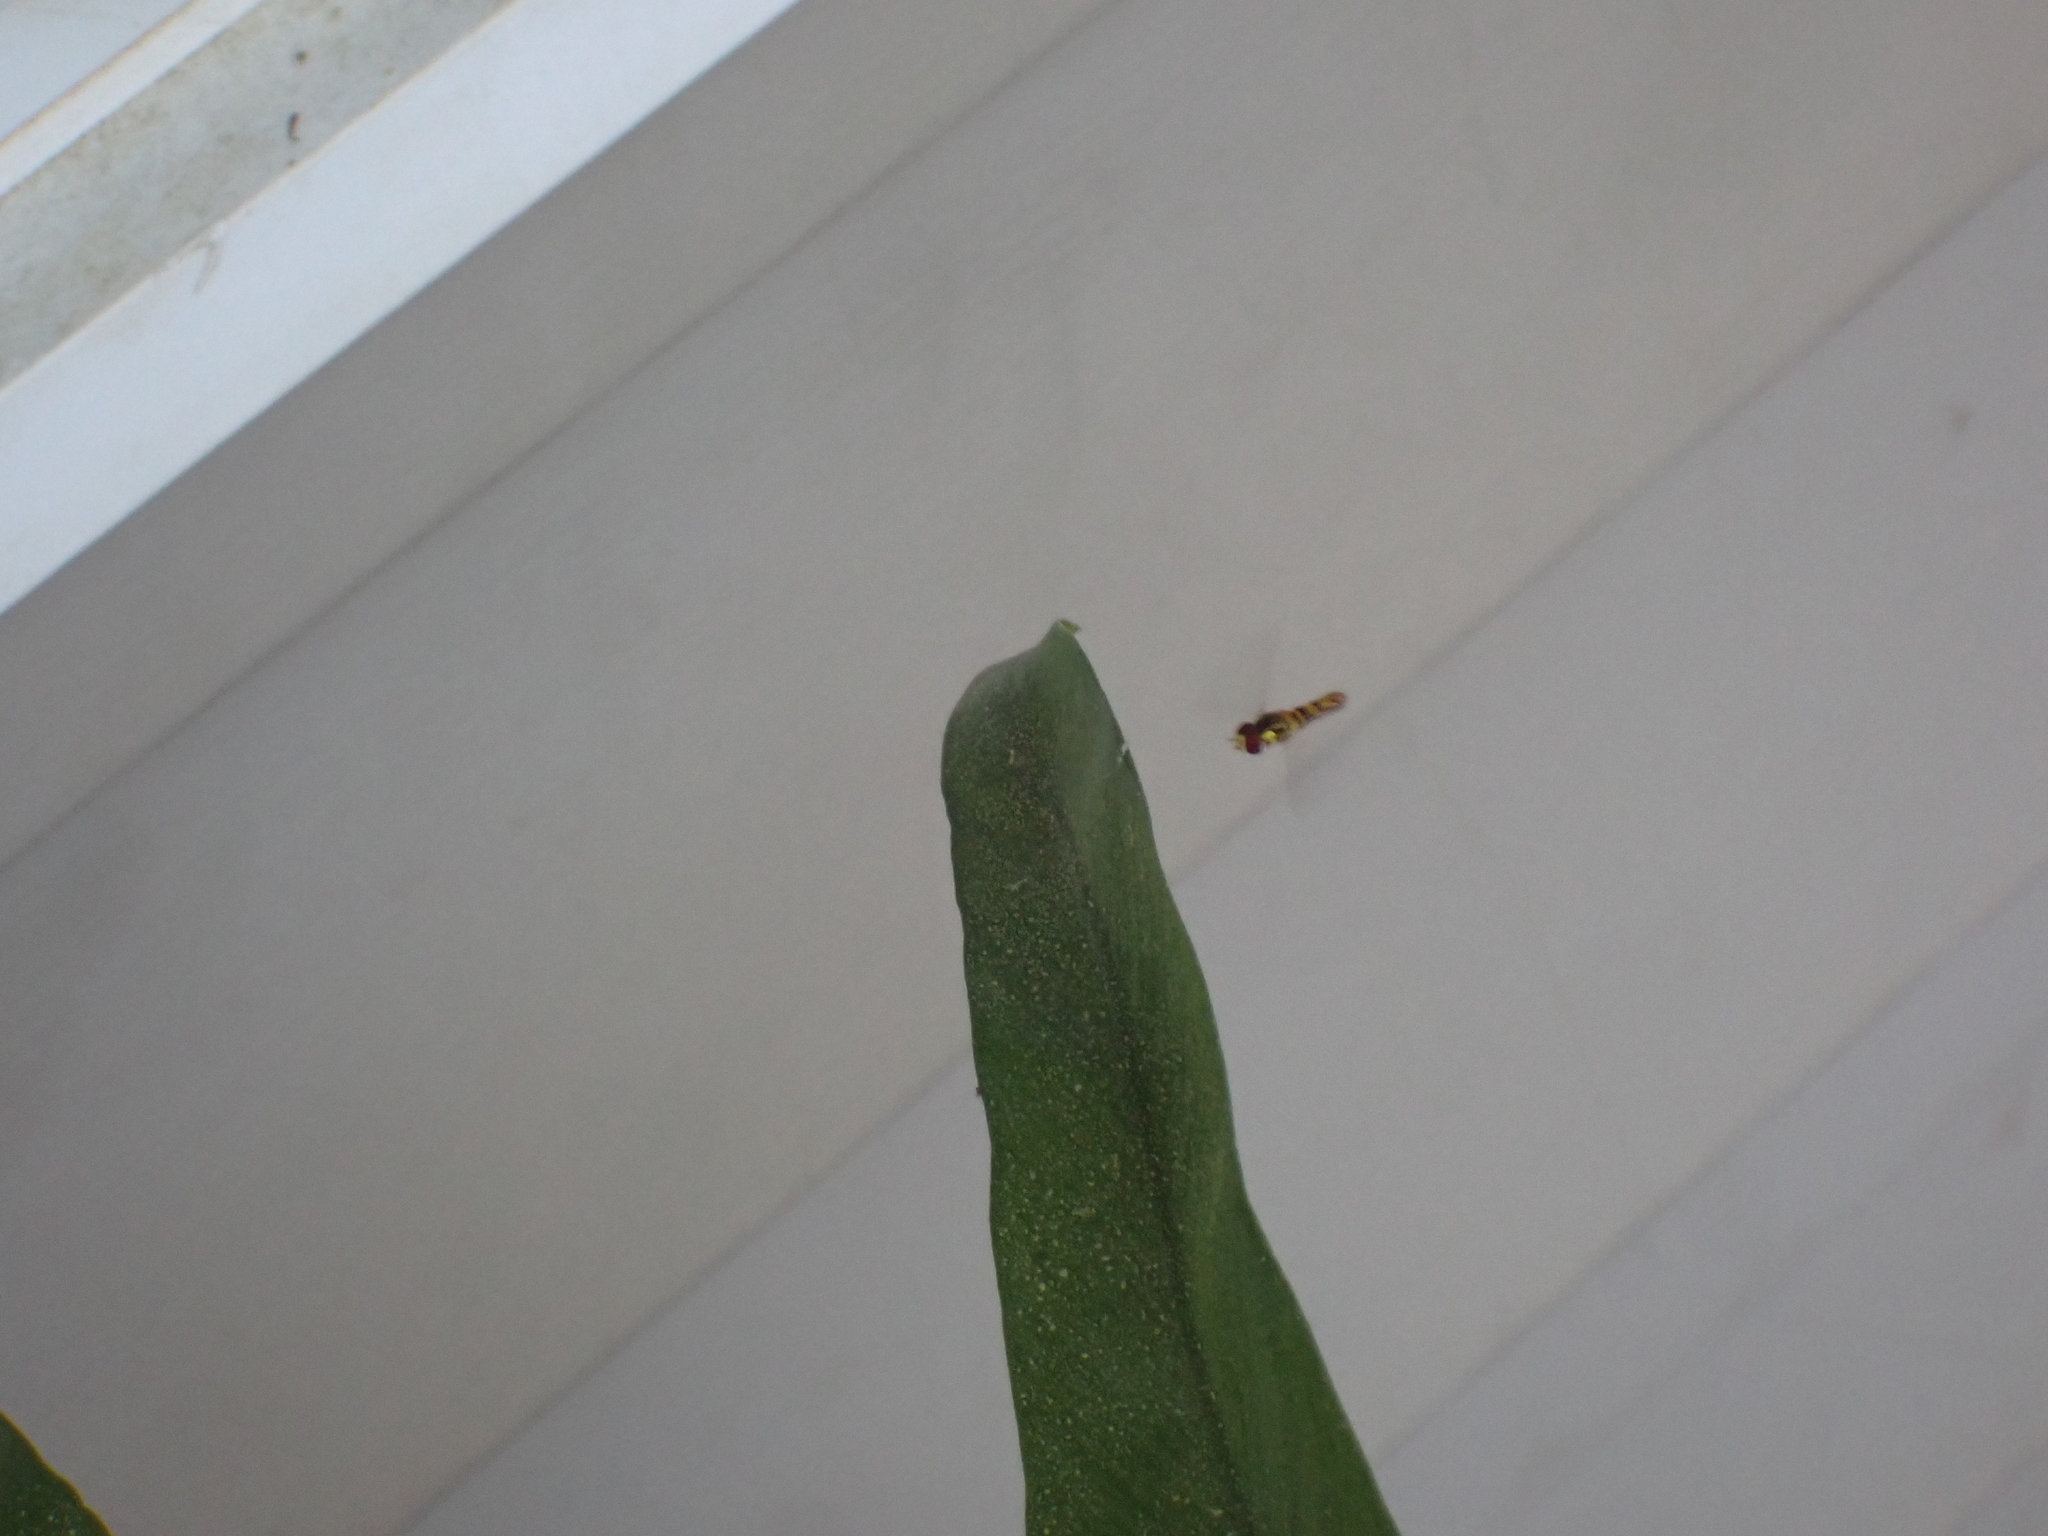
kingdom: Animalia
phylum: Arthropoda
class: Insecta
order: Diptera
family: Syrphidae
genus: Allograpta
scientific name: Allograpta obliqua
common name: Common oblique syrphid
